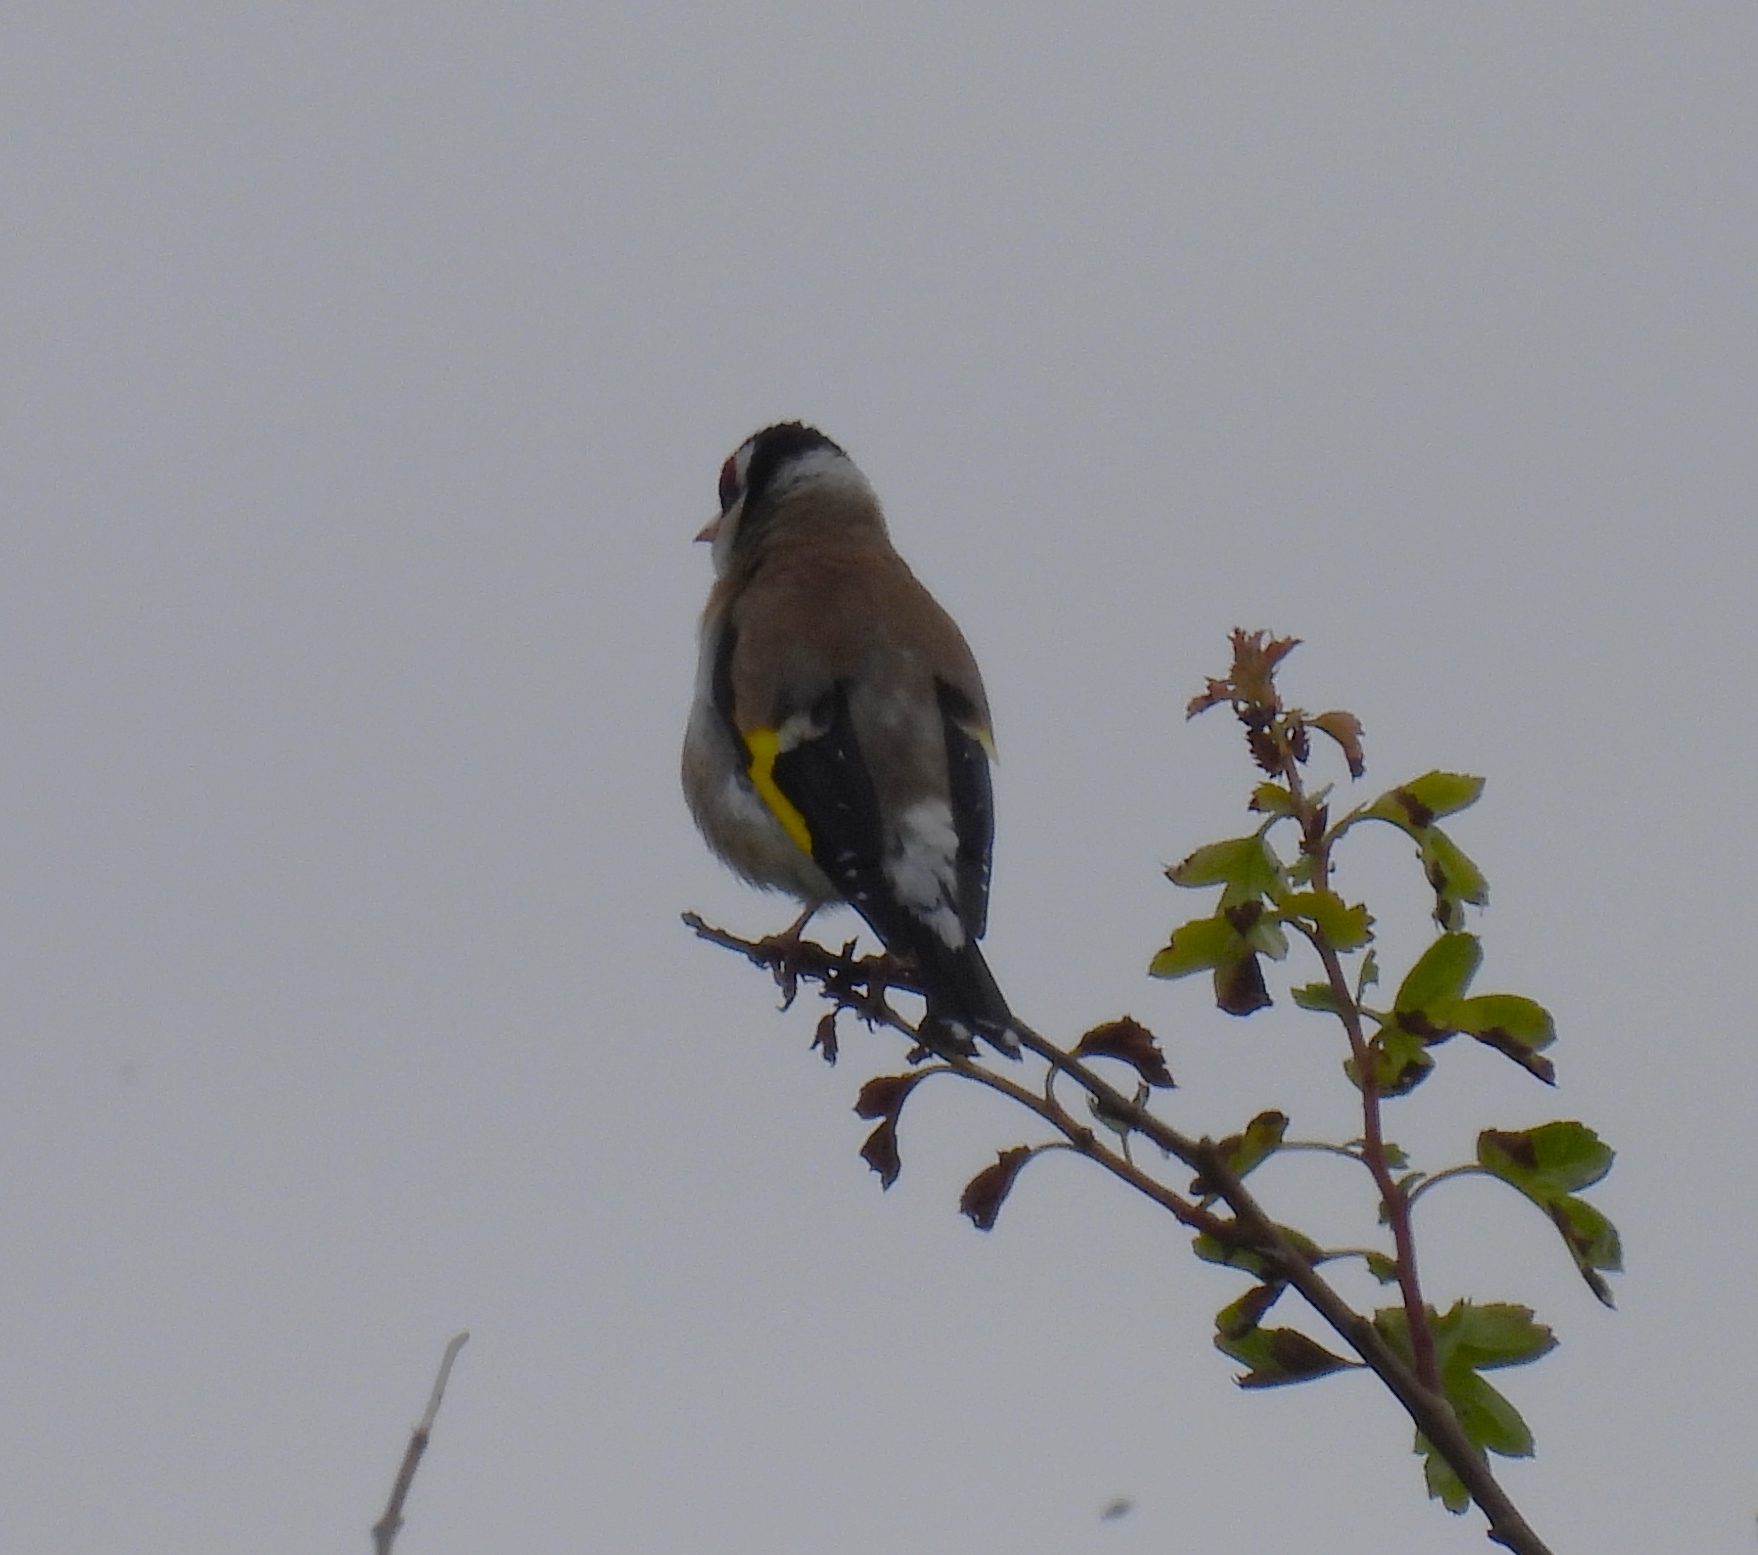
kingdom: Animalia
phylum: Chordata
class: Aves
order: Passeriformes
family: Fringillidae
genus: Carduelis
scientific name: Carduelis carduelis
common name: European goldfinch
